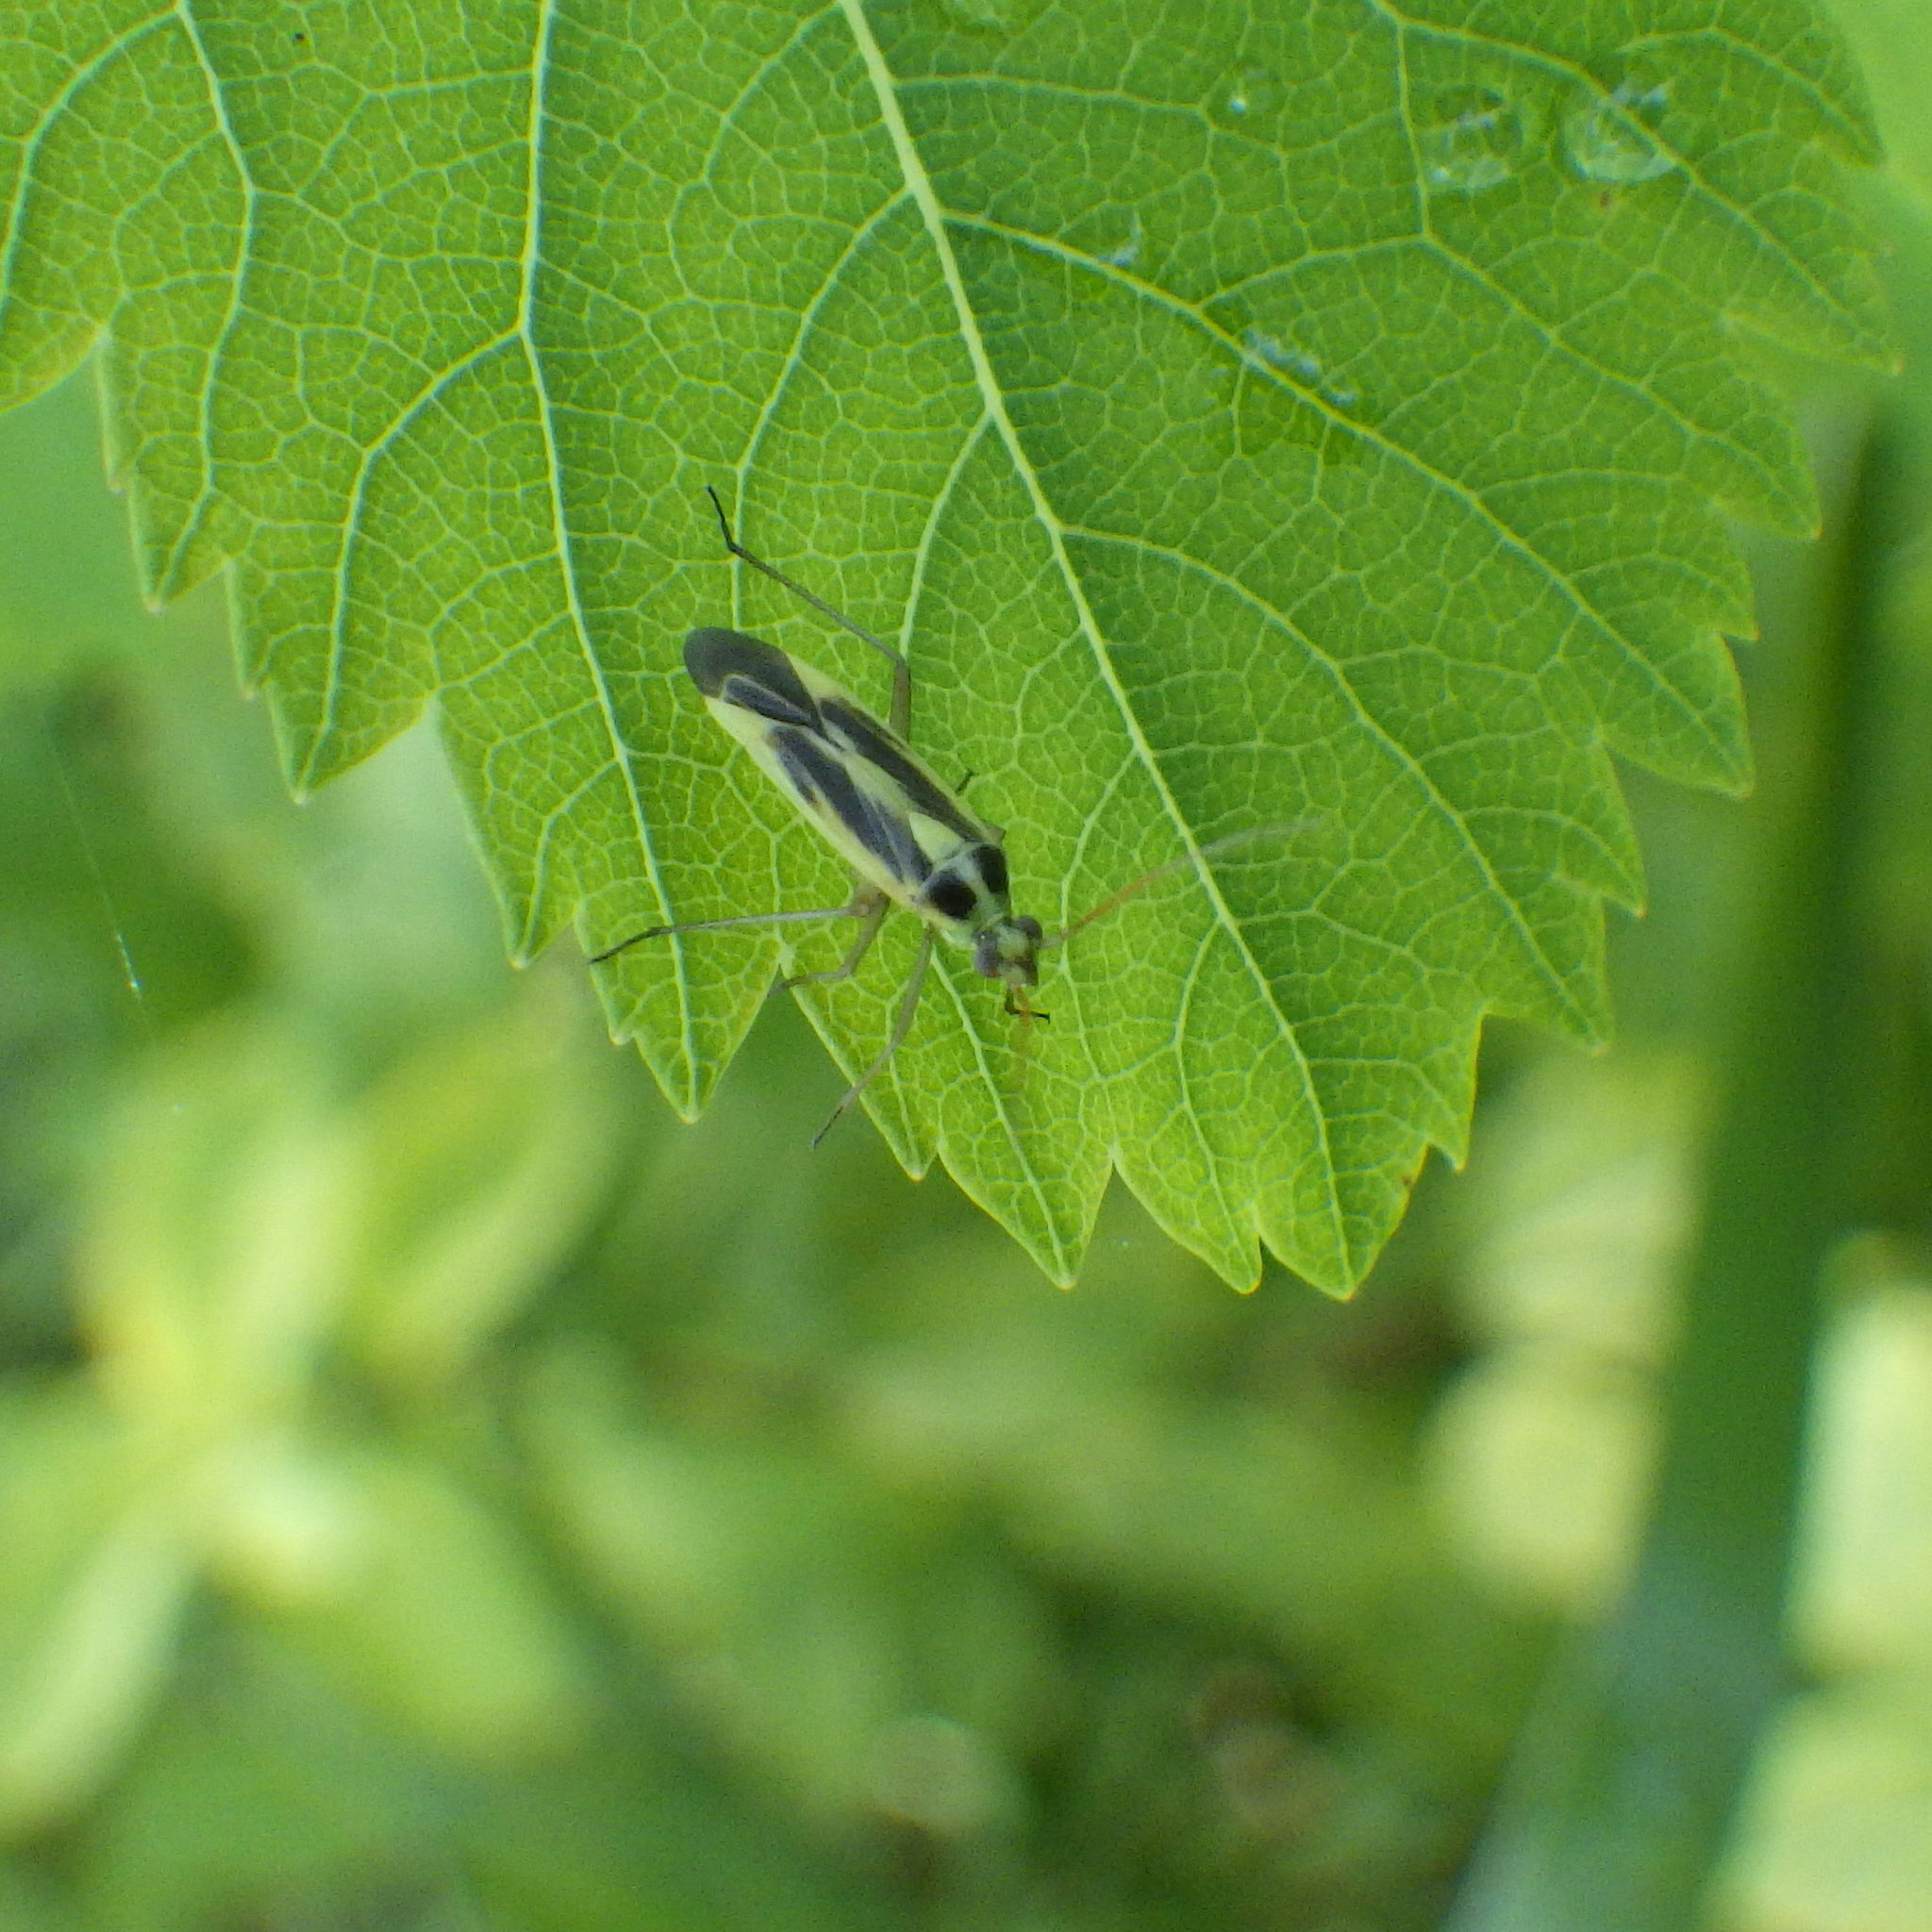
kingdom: Animalia
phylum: Arthropoda
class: Insecta
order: Hemiptera
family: Miridae
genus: Stenotus
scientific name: Stenotus binotatus
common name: Plant bug
